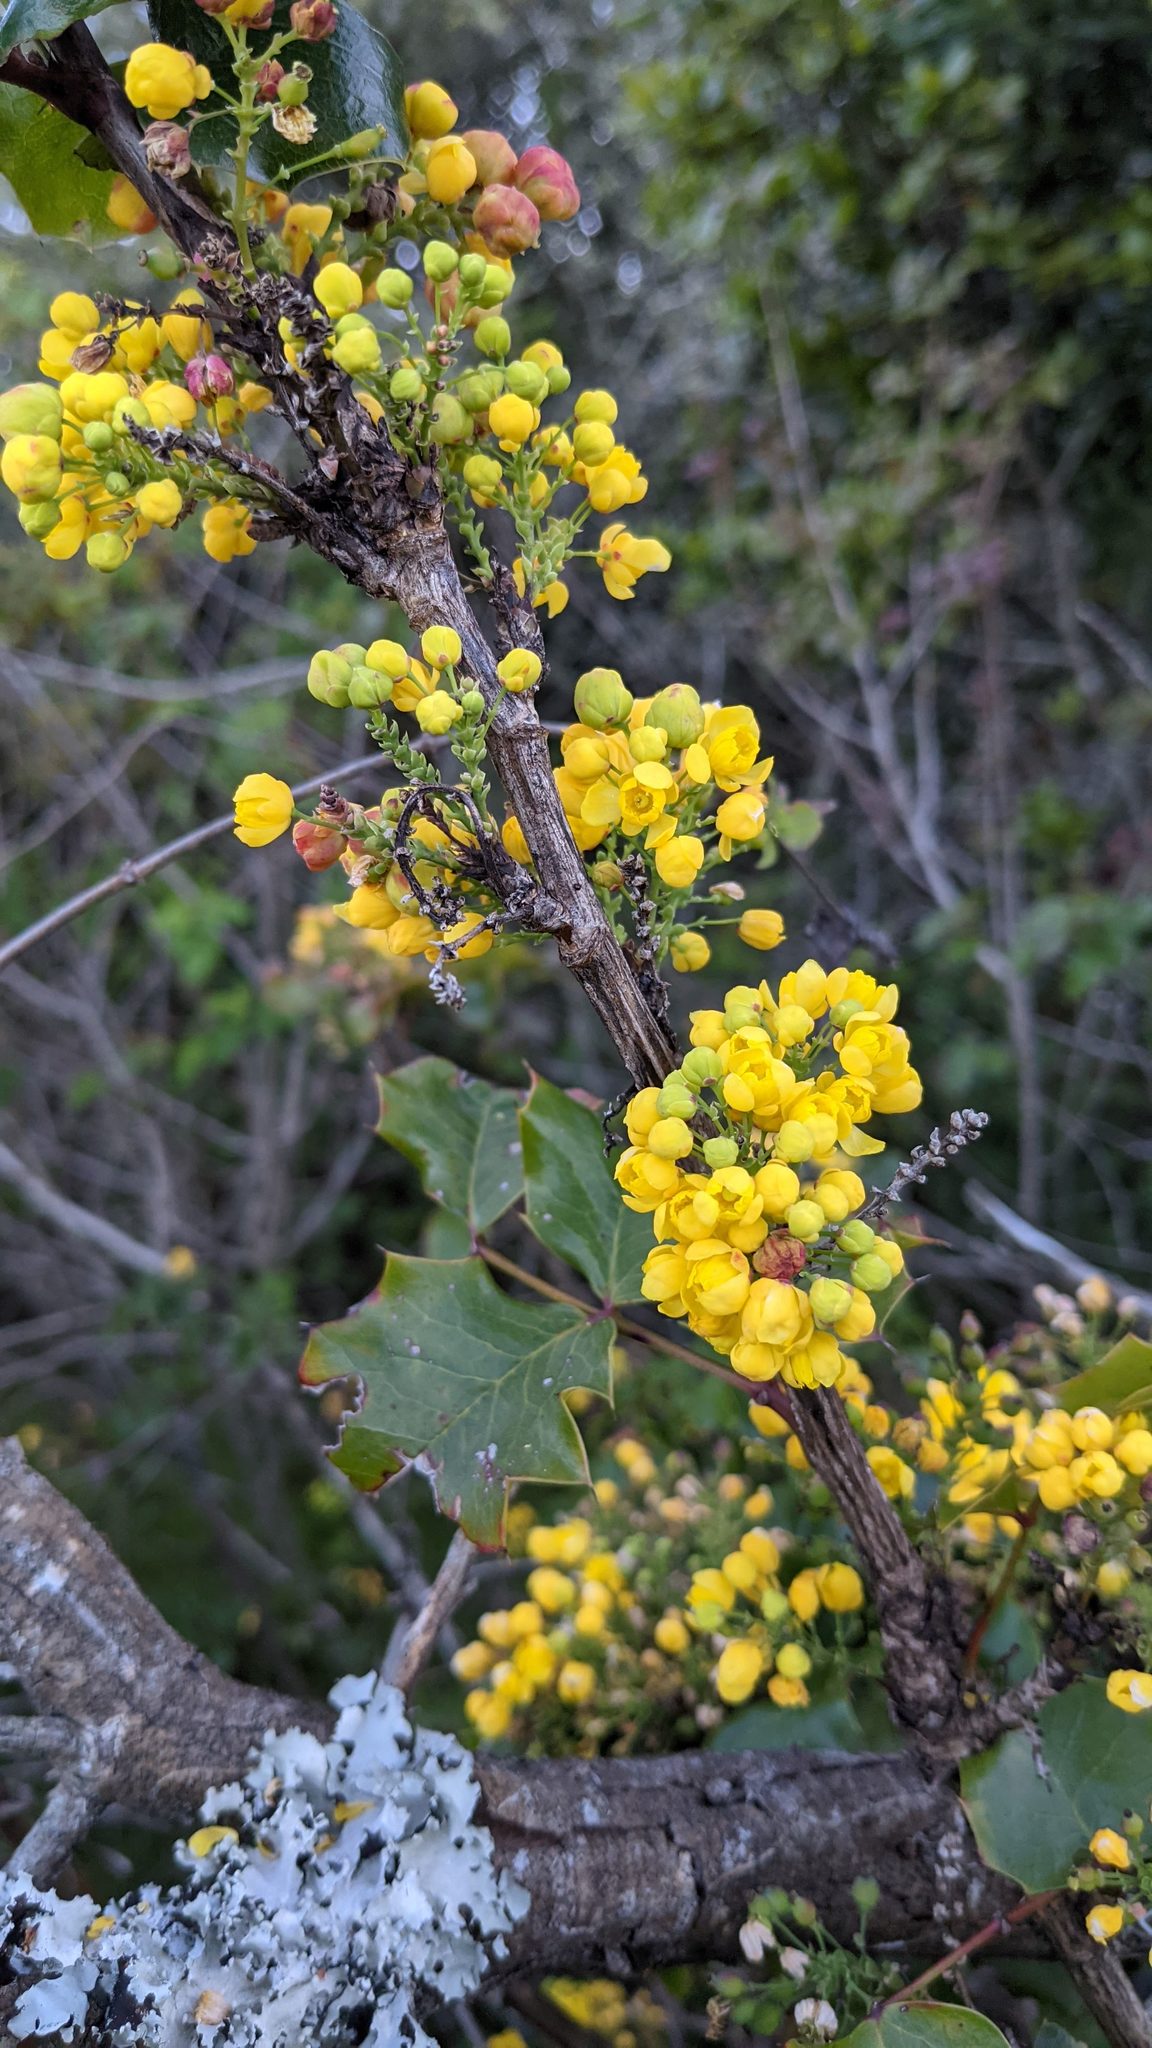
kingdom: Plantae
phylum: Tracheophyta
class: Magnoliopsida
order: Ranunculales
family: Berberidaceae
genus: Mahonia
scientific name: Mahonia
